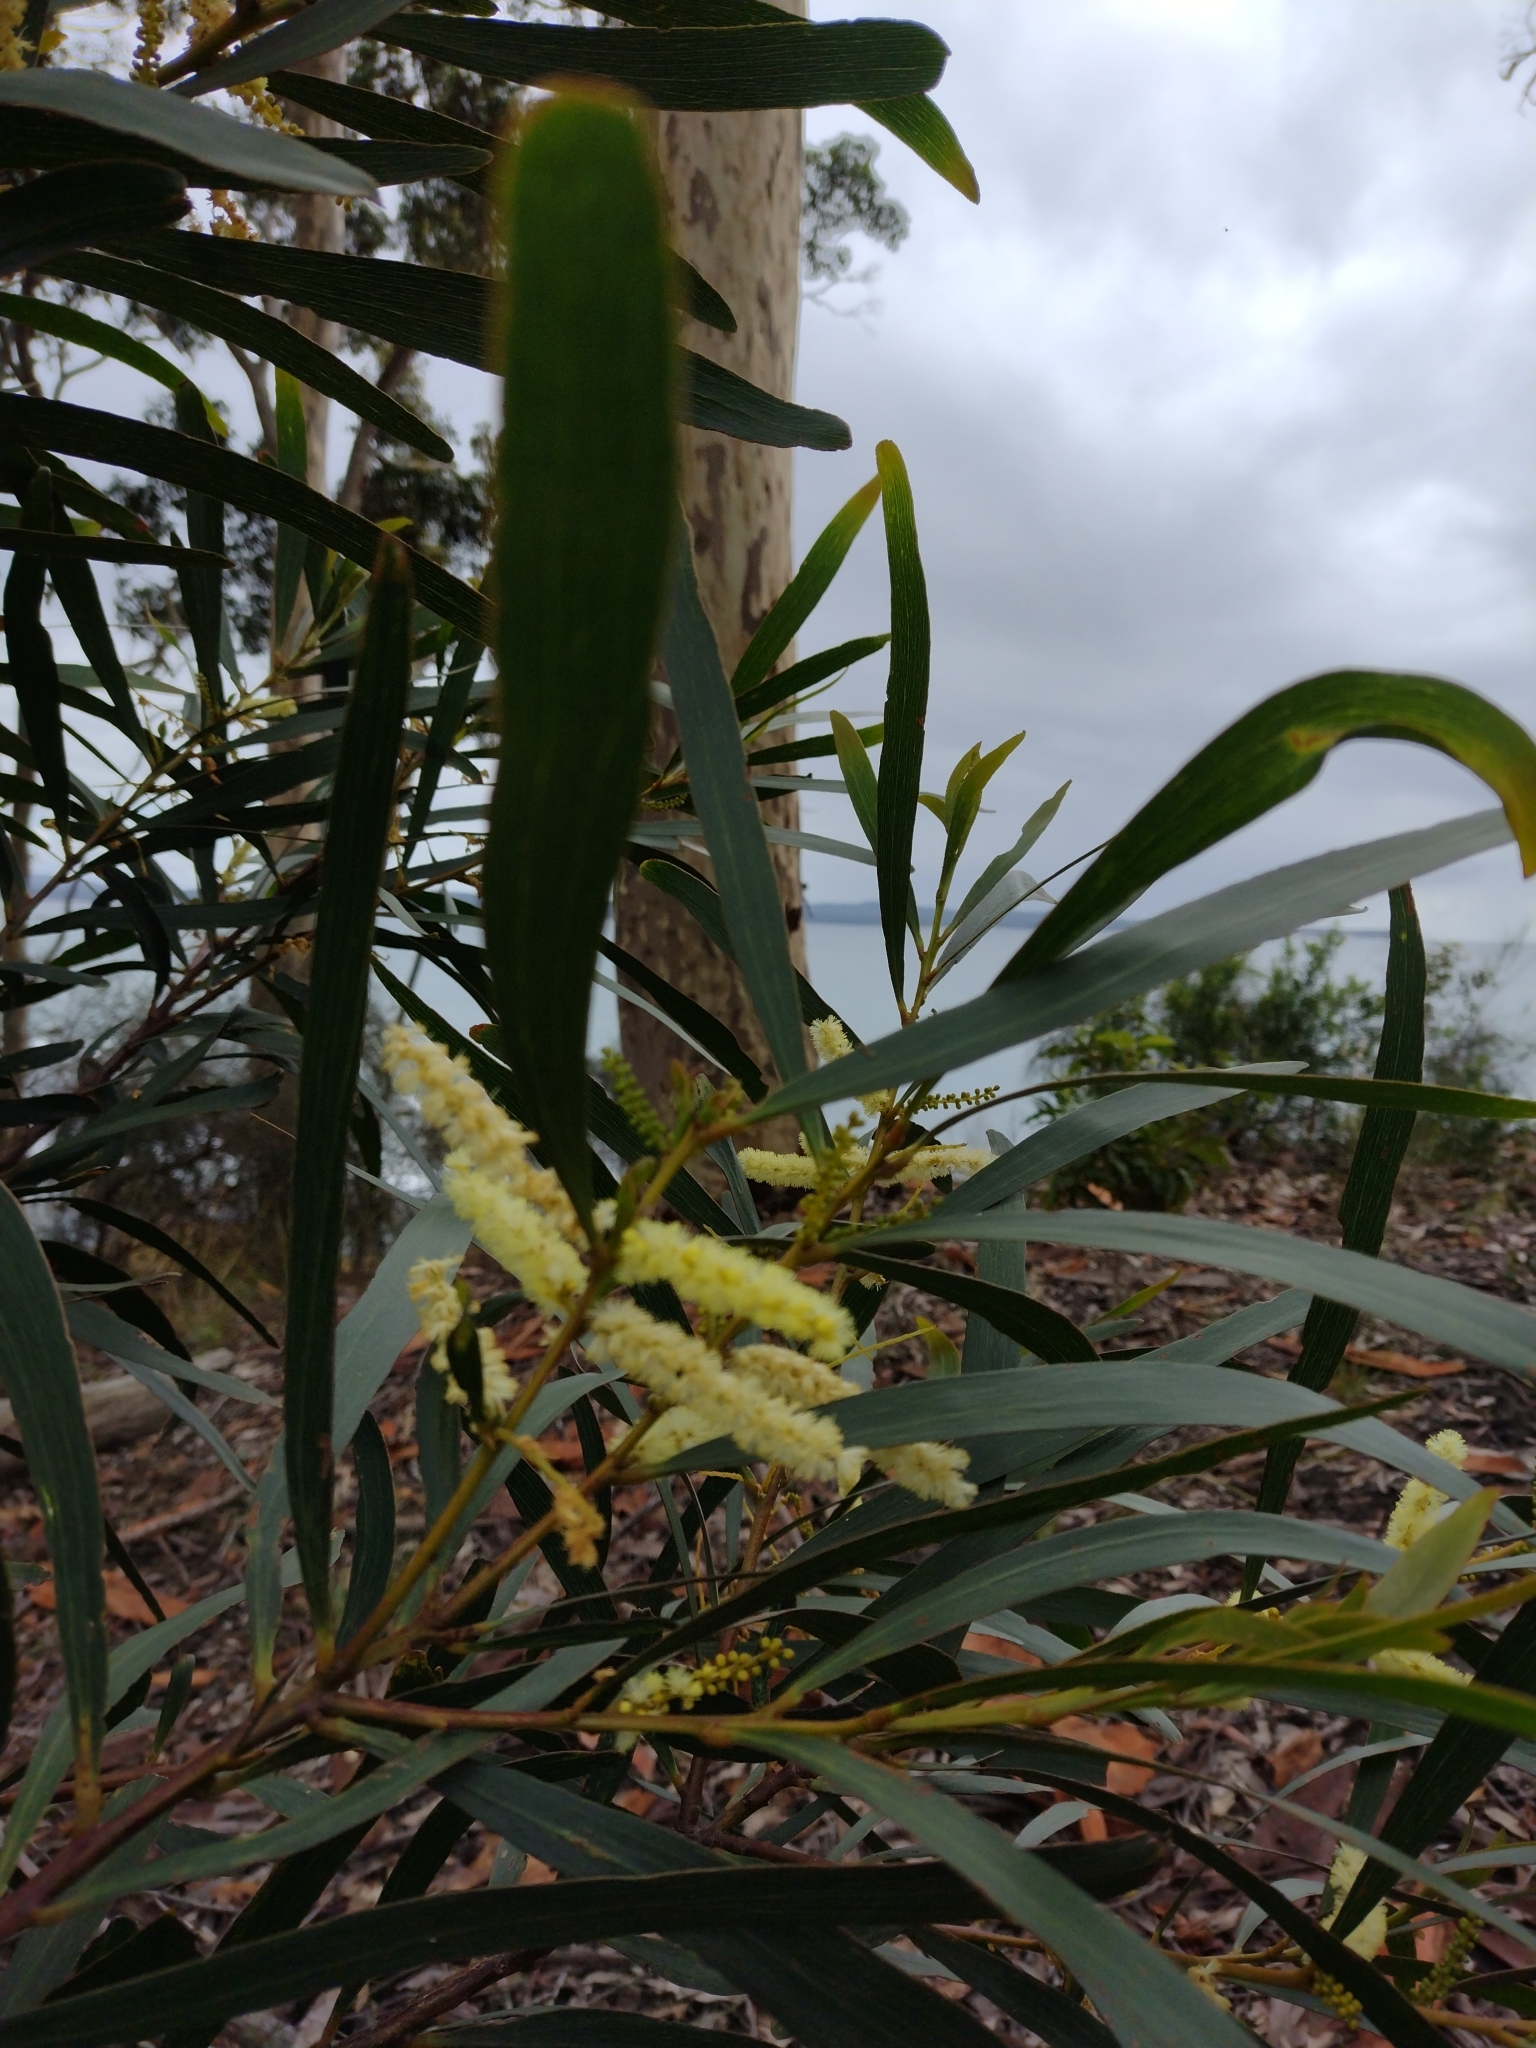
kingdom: Plantae
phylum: Tracheophyta
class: Magnoliopsida
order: Fabales
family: Fabaceae
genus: Acacia
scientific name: Acacia obtusifolia
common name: Stiff-leaf wattle
